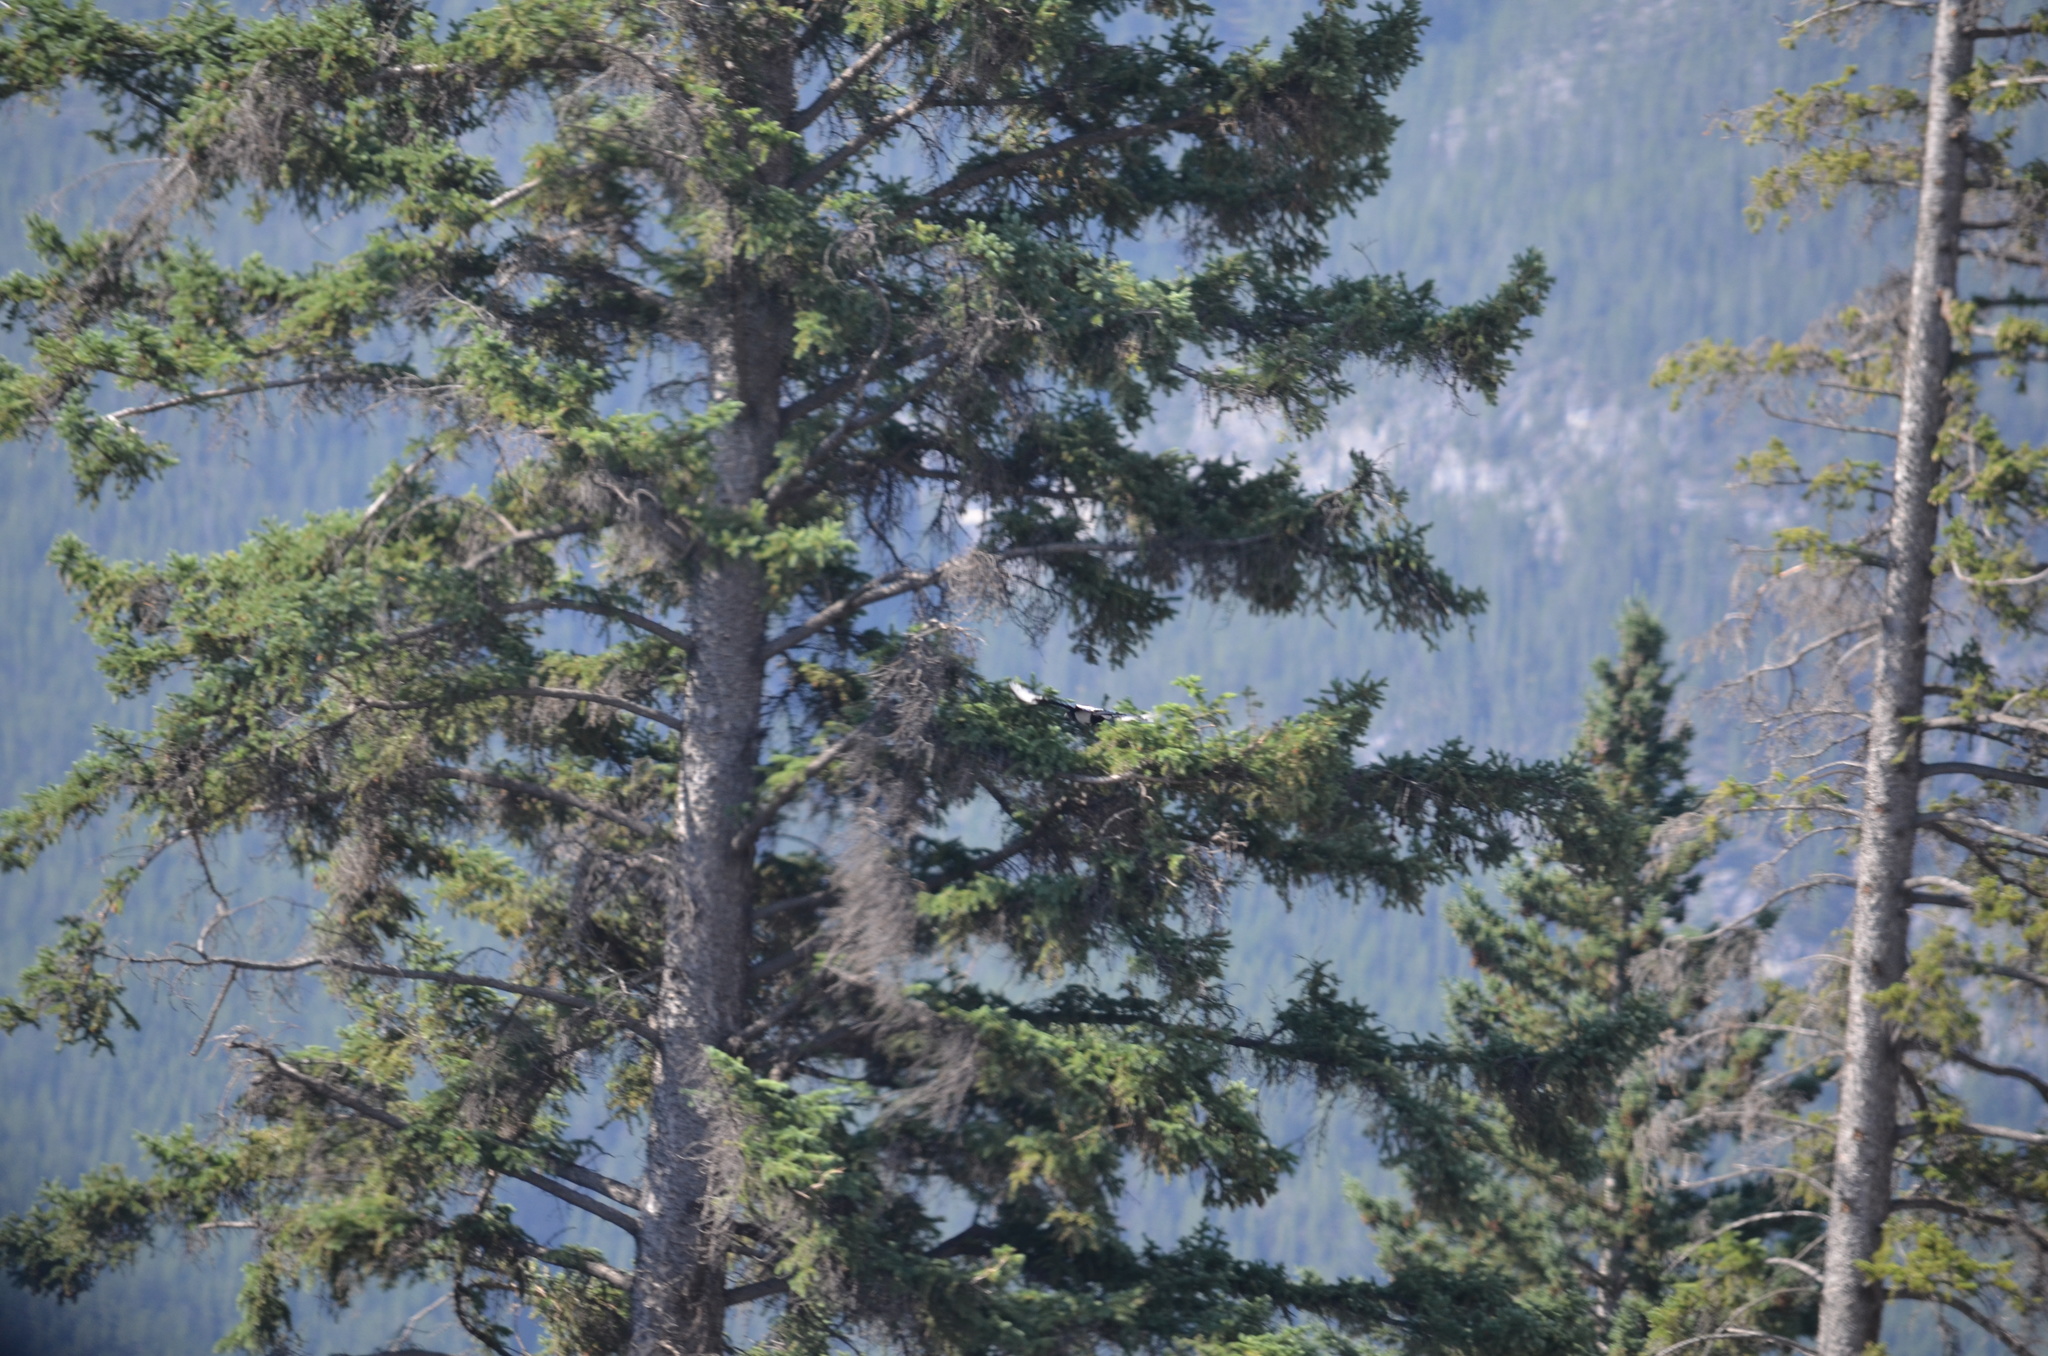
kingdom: Animalia
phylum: Chordata
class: Aves
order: Passeriformes
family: Corvidae
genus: Pica
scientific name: Pica hudsonia
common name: Black-billed magpie
